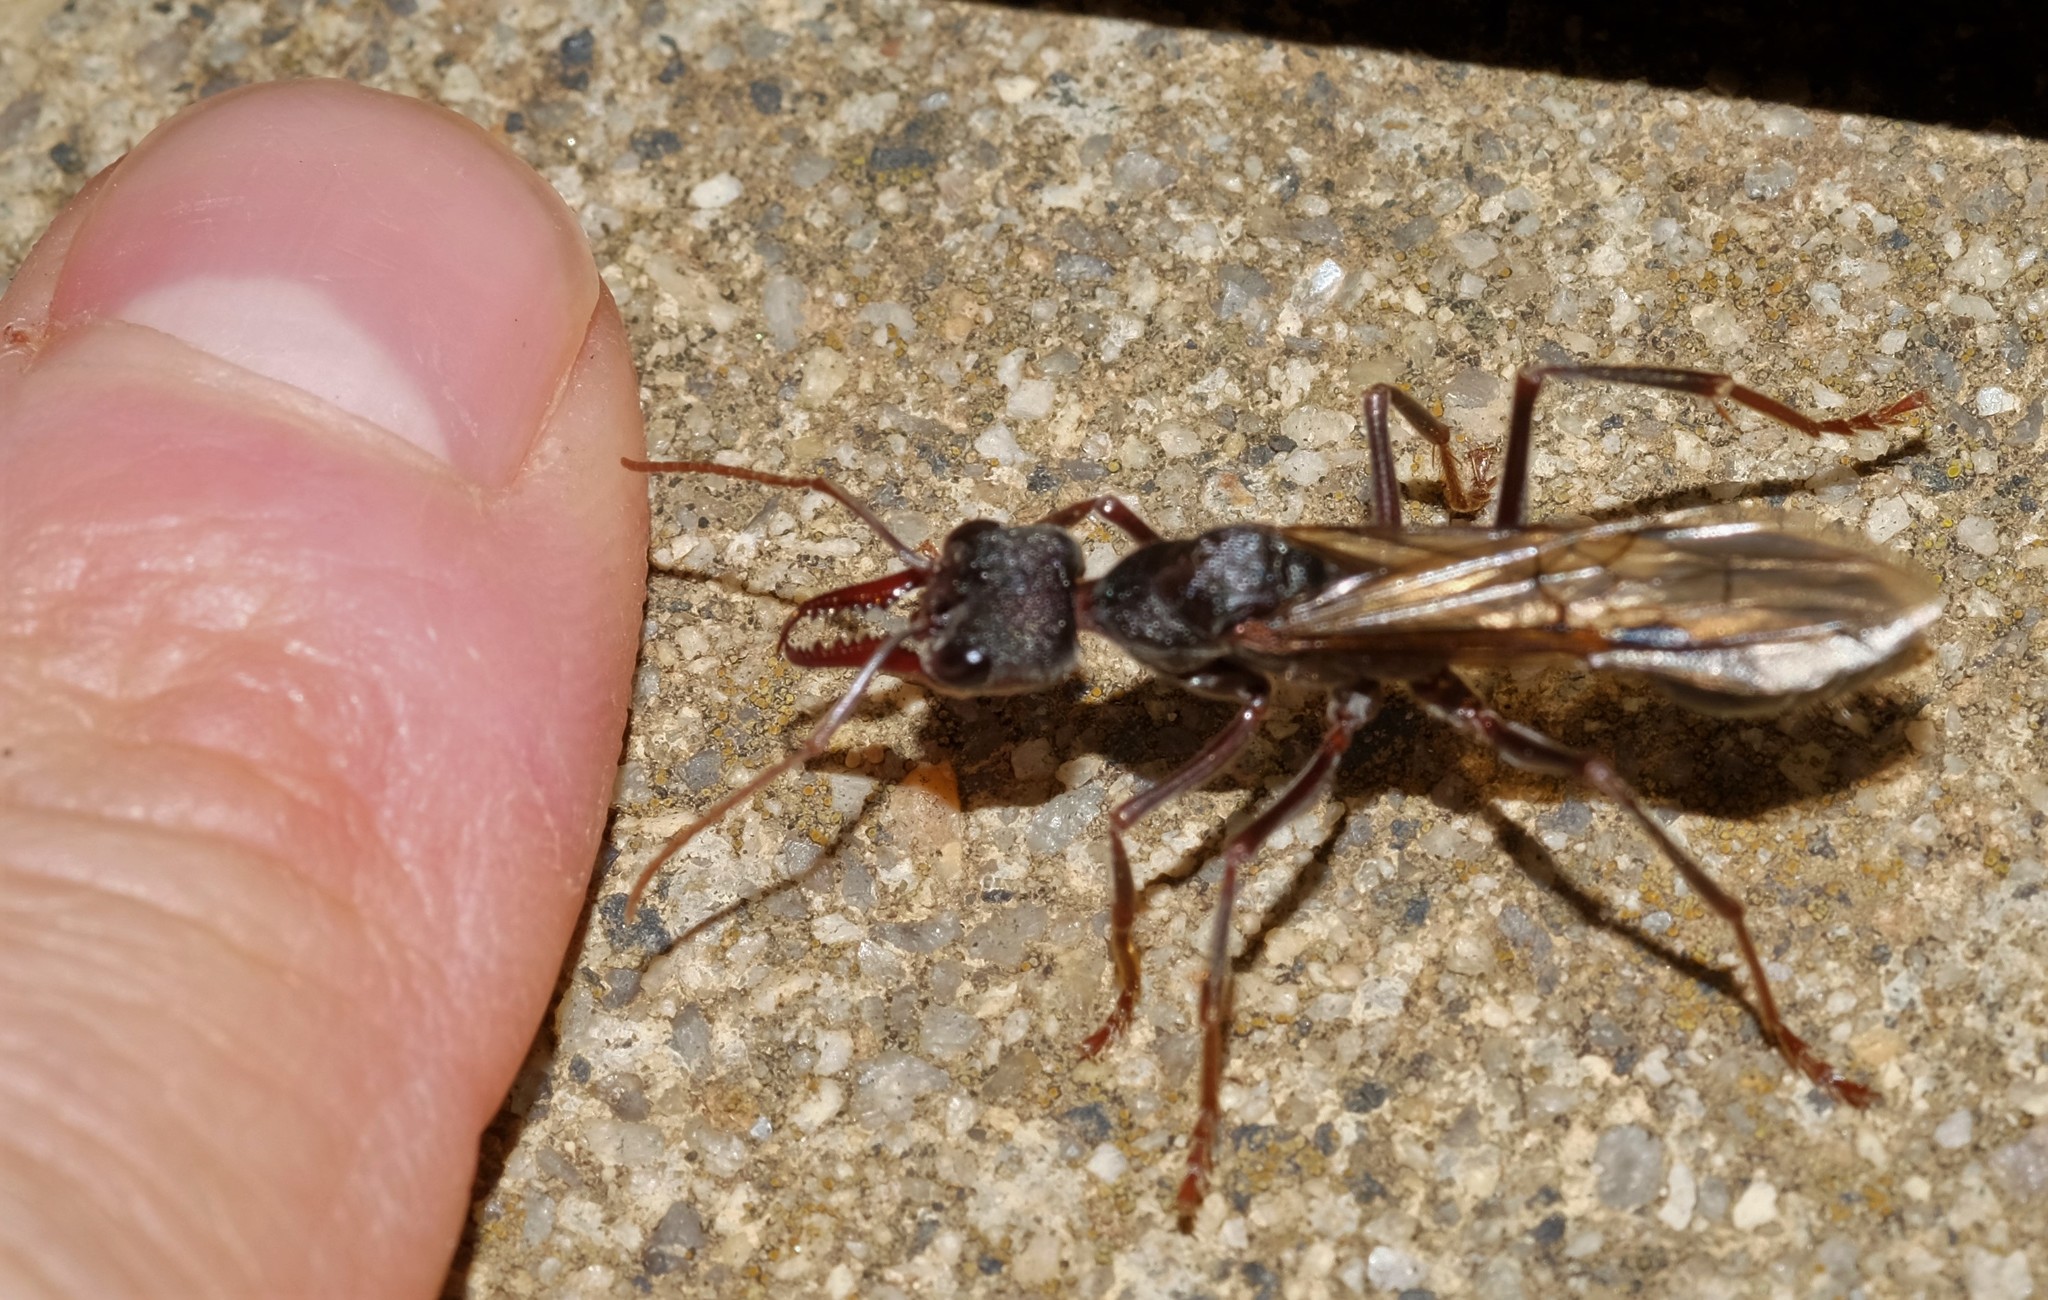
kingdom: Animalia
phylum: Arthropoda
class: Insecta
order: Hymenoptera
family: Formicidae
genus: Myrmecia
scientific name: Myrmecia pyriformis
